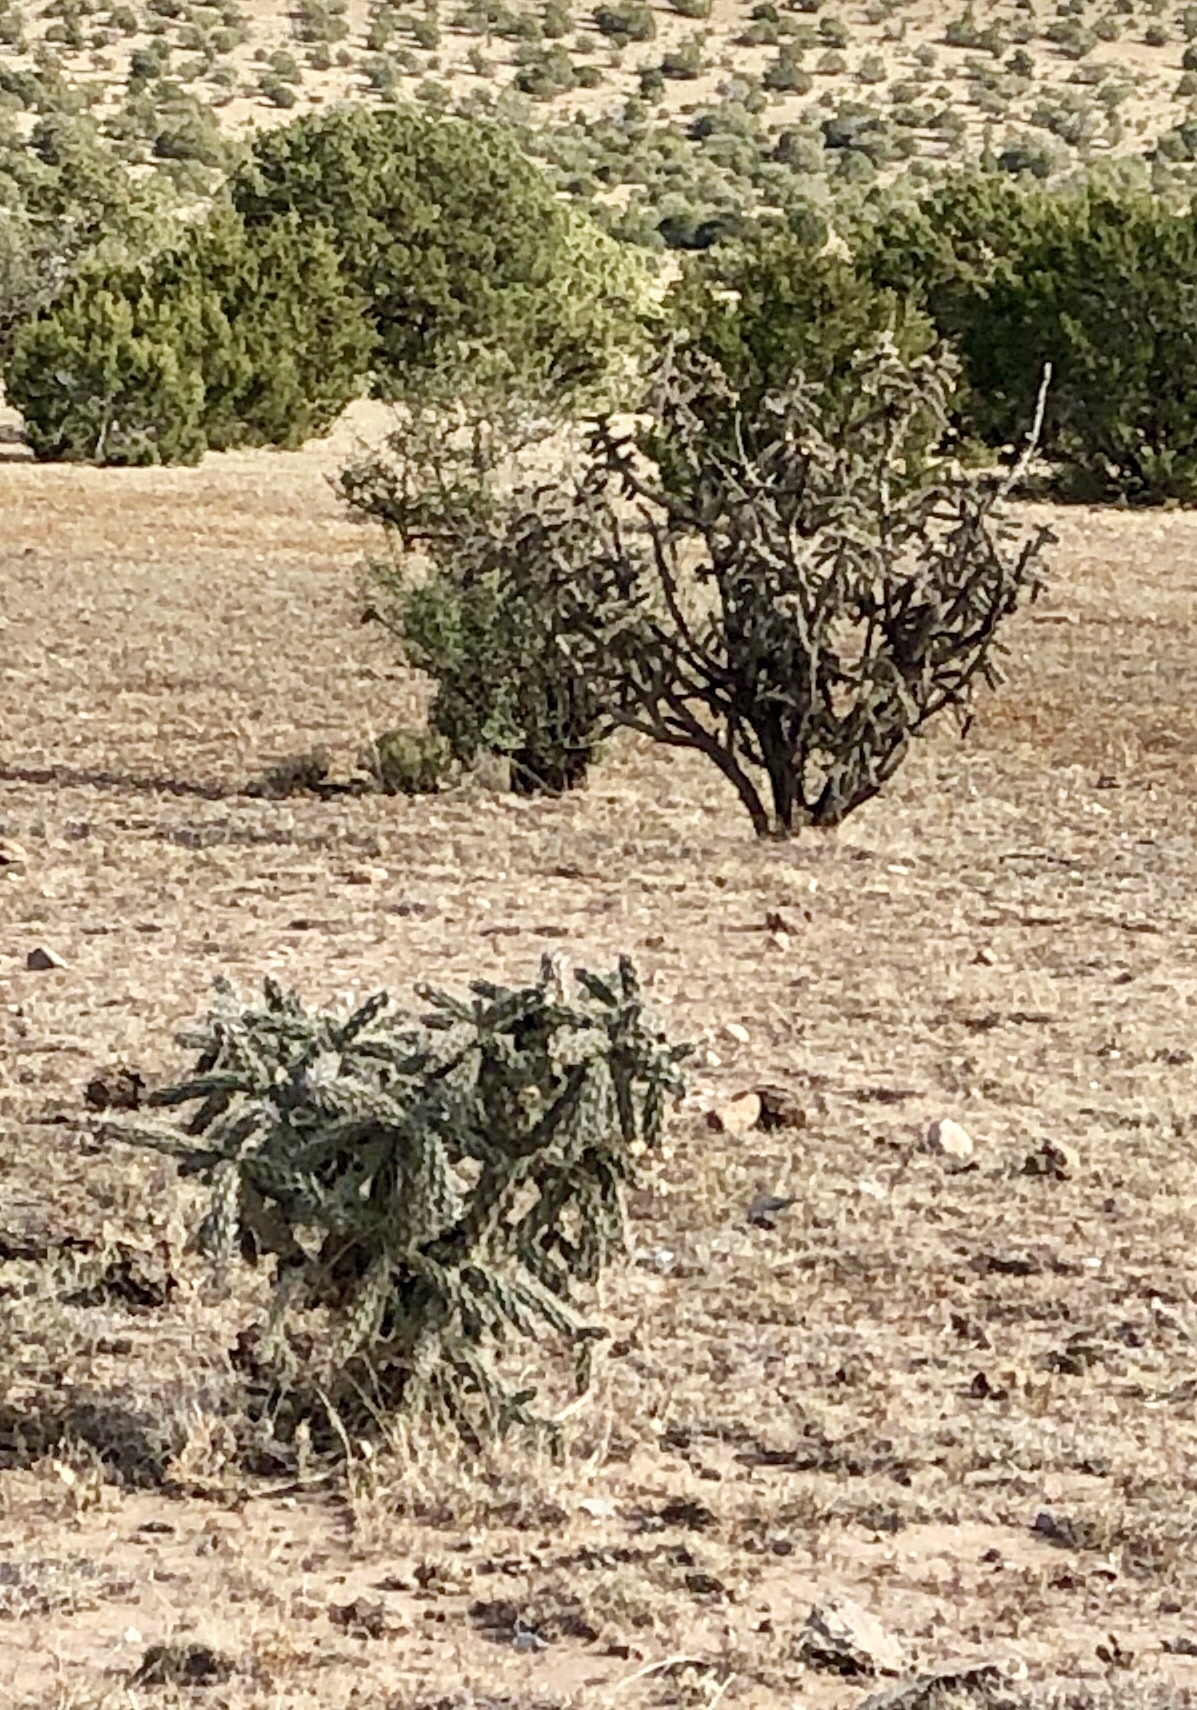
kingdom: Plantae
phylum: Tracheophyta
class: Magnoliopsida
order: Caryophyllales
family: Cactaceae
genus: Cylindropuntia
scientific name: Cylindropuntia imbricata
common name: Candelabrum cactus
